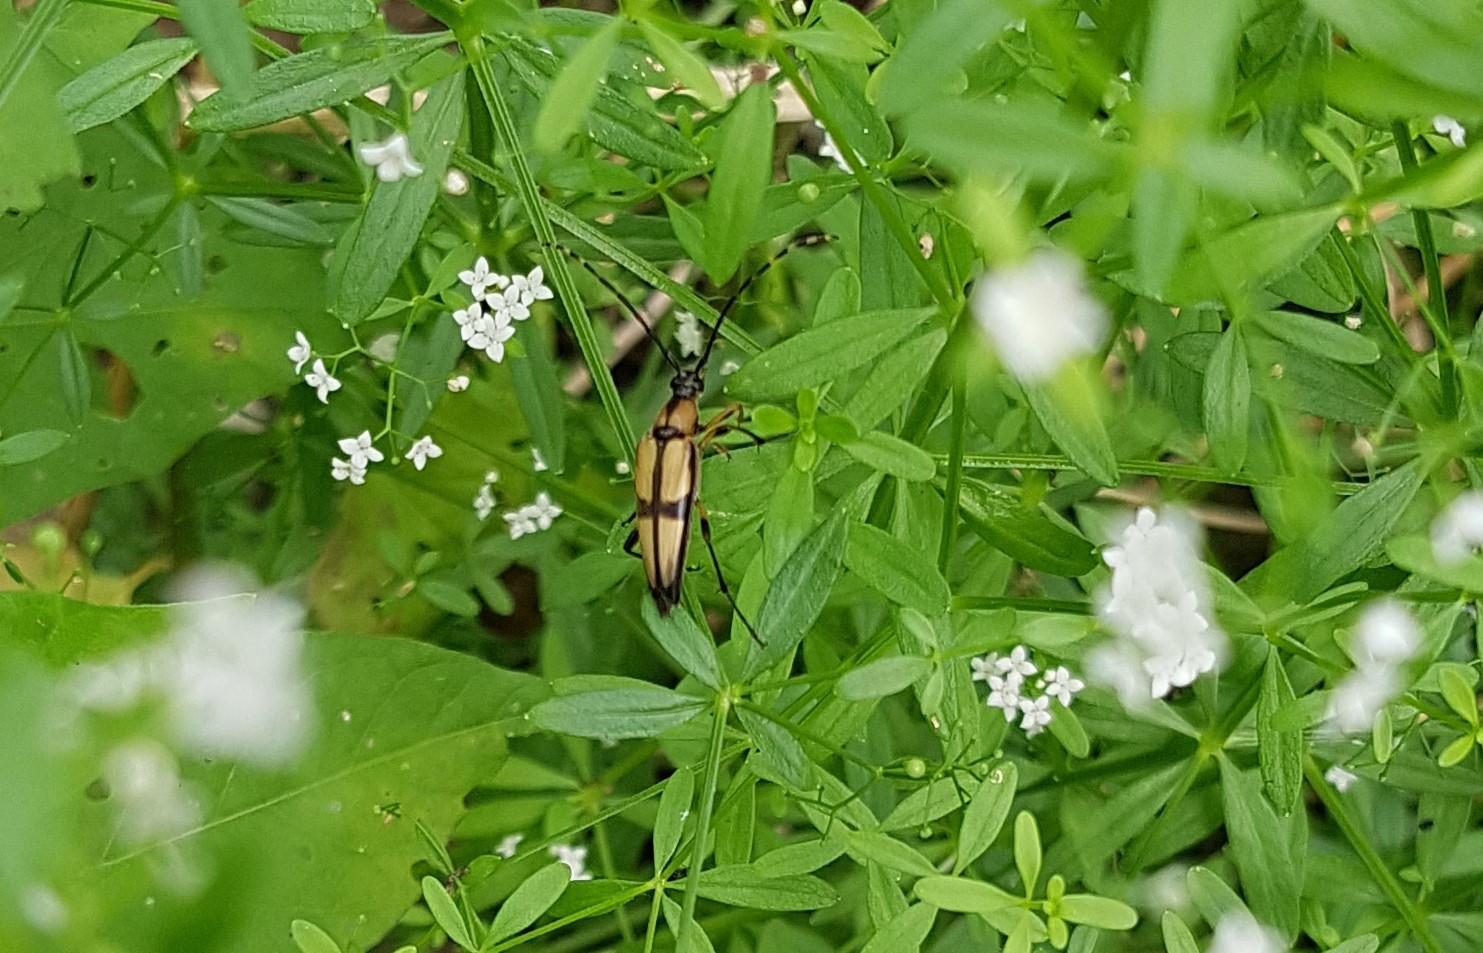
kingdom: Animalia
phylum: Arthropoda
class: Insecta
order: Coleoptera
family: Cerambycidae
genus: Etorofus
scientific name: Etorofus
